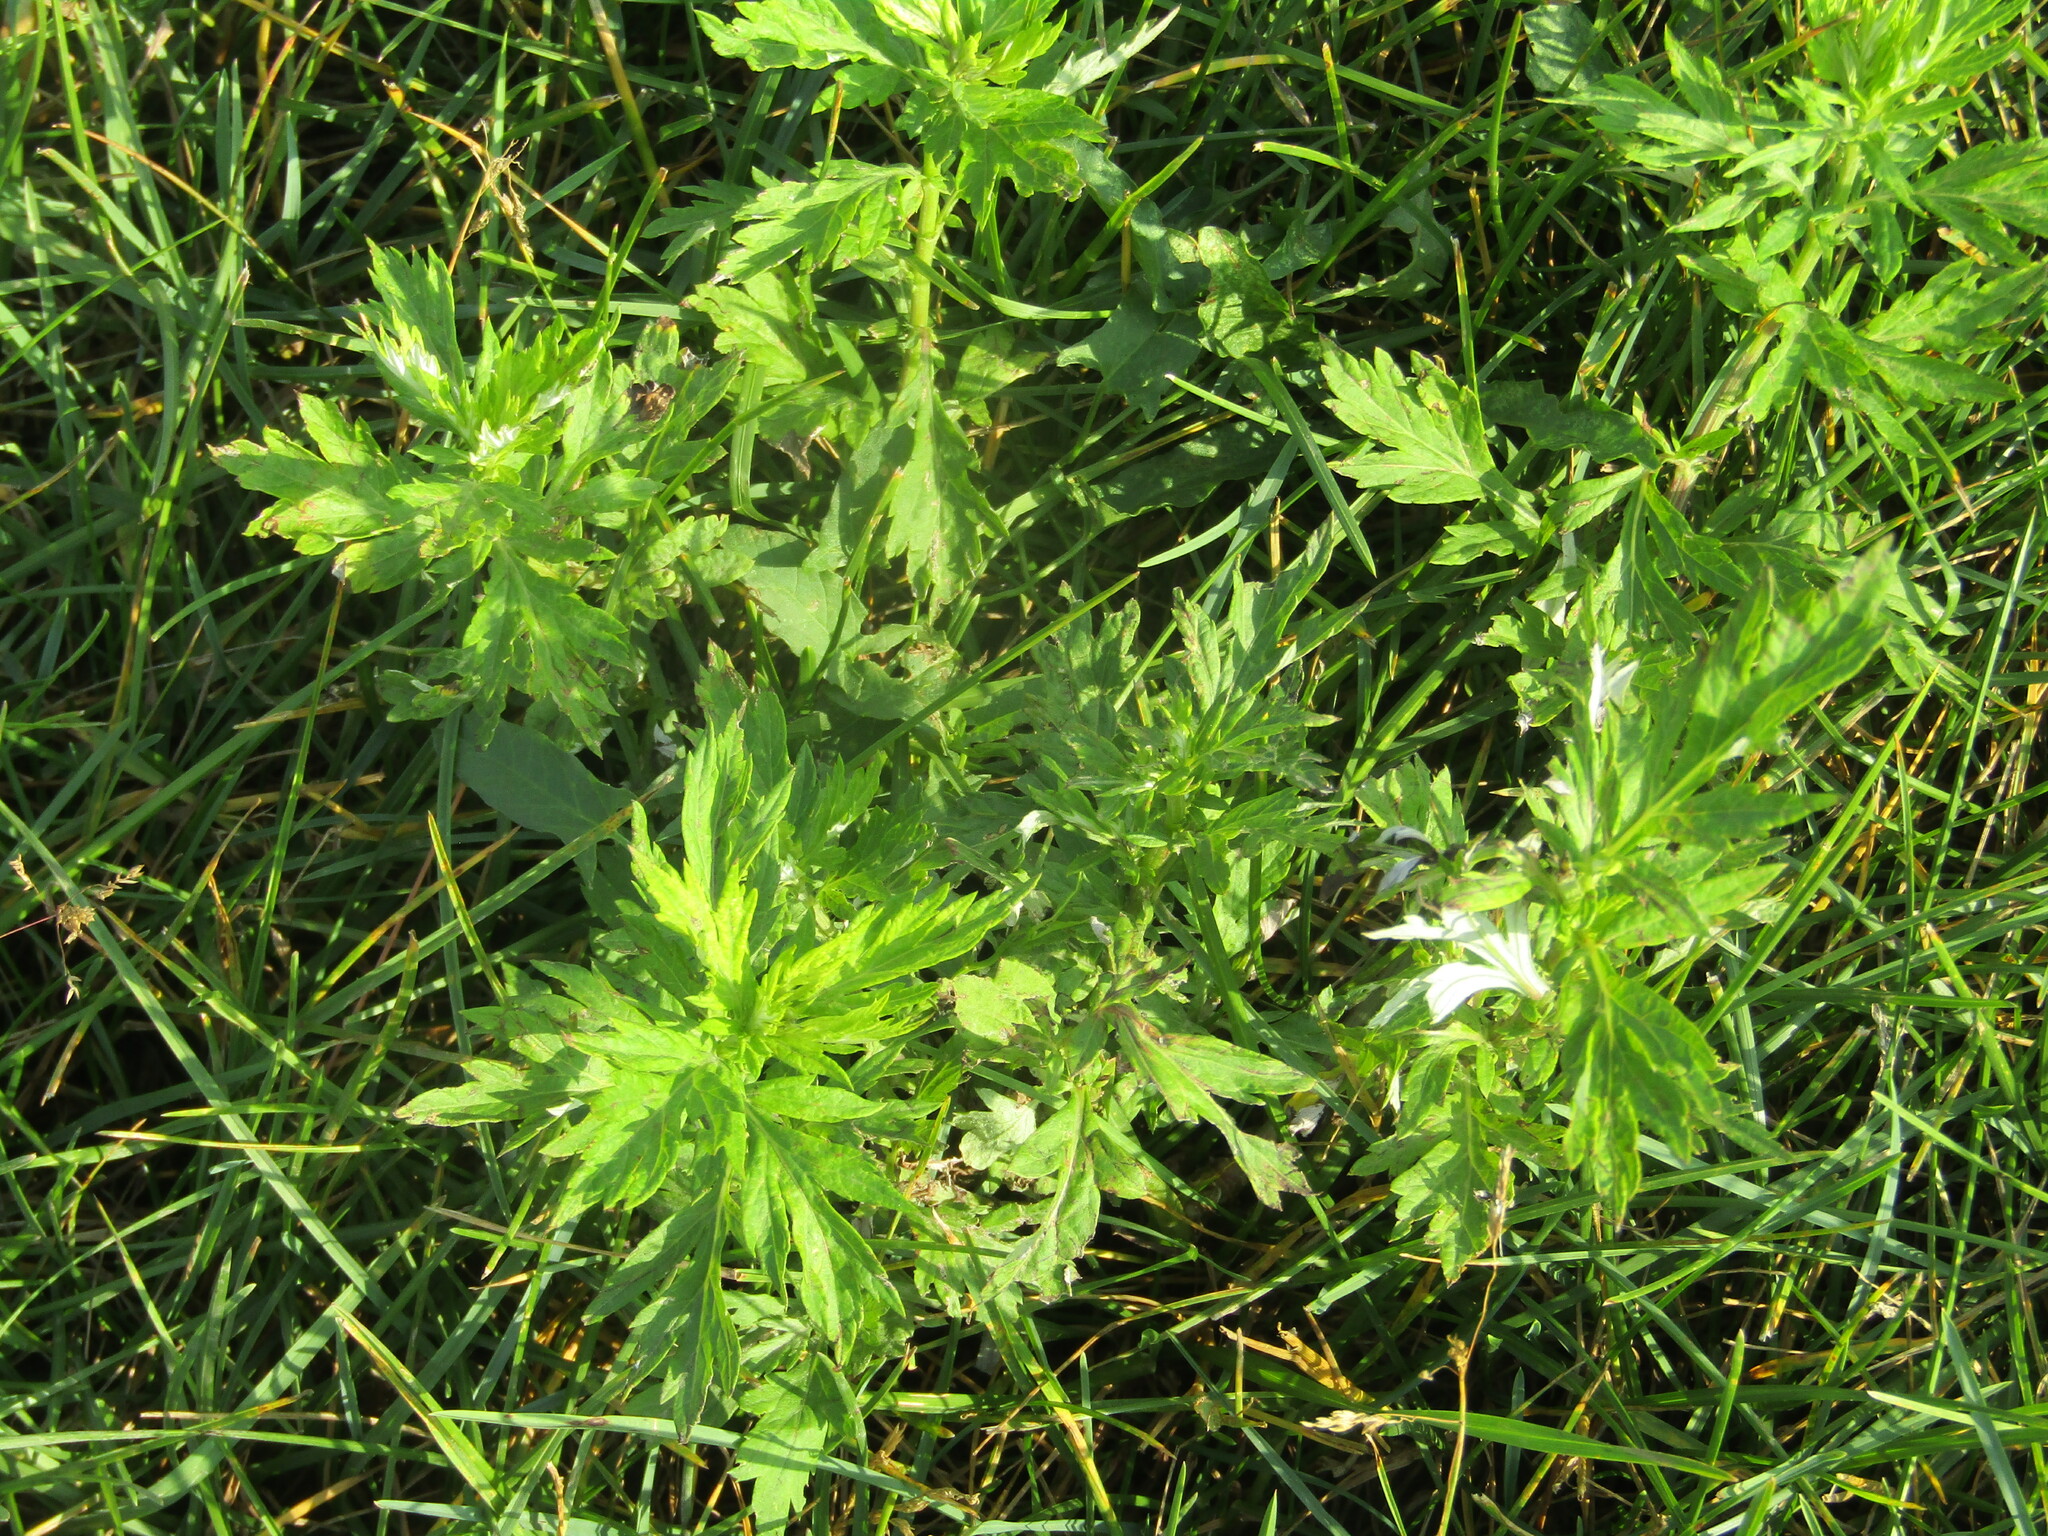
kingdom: Plantae
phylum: Tracheophyta
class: Magnoliopsida
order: Asterales
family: Asteraceae
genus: Artemisia
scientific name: Artemisia vulgaris
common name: Mugwort
